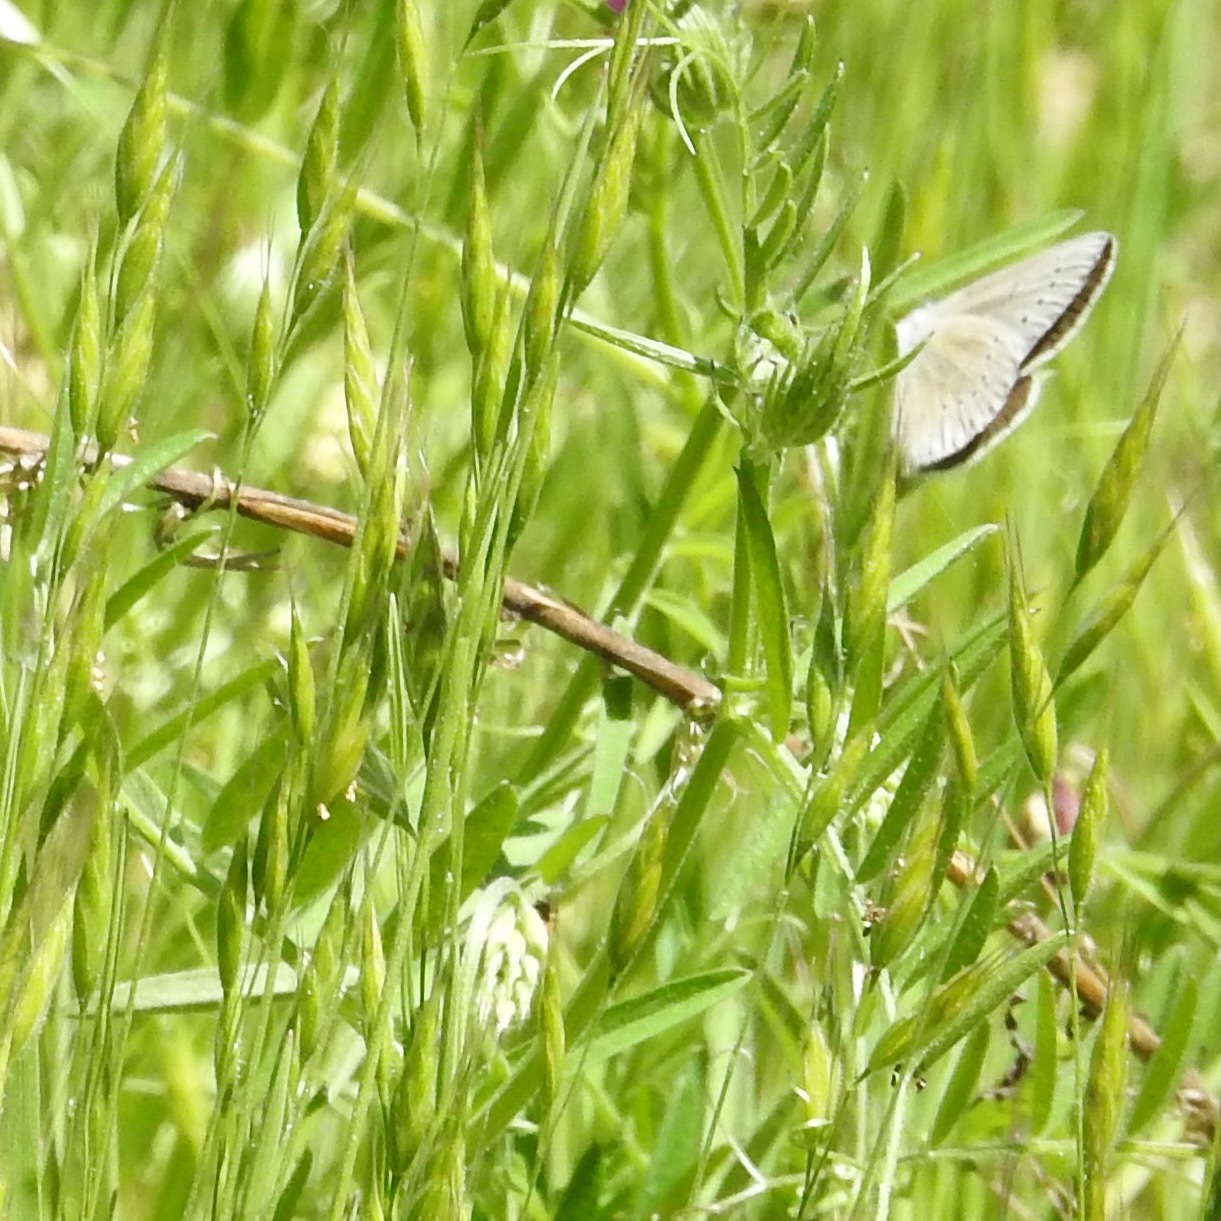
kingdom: Animalia
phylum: Arthropoda
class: Insecta
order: Lepidoptera
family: Lycaenidae
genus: Glaucopsyche
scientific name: Glaucopsyche lygdamus
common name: Silvery blue
